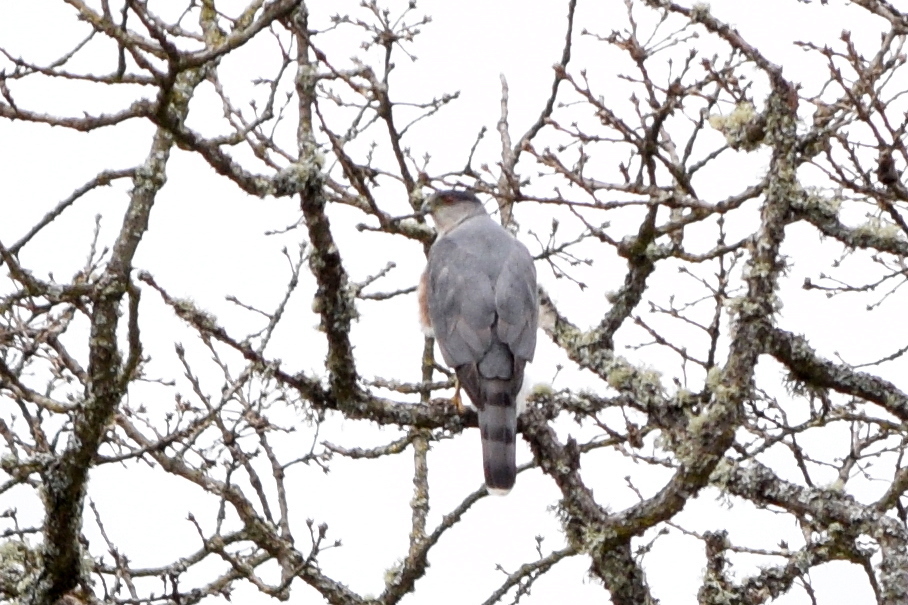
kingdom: Animalia
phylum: Chordata
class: Aves
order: Accipitriformes
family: Accipitridae
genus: Accipiter
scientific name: Accipiter cooperii
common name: Cooper's hawk
